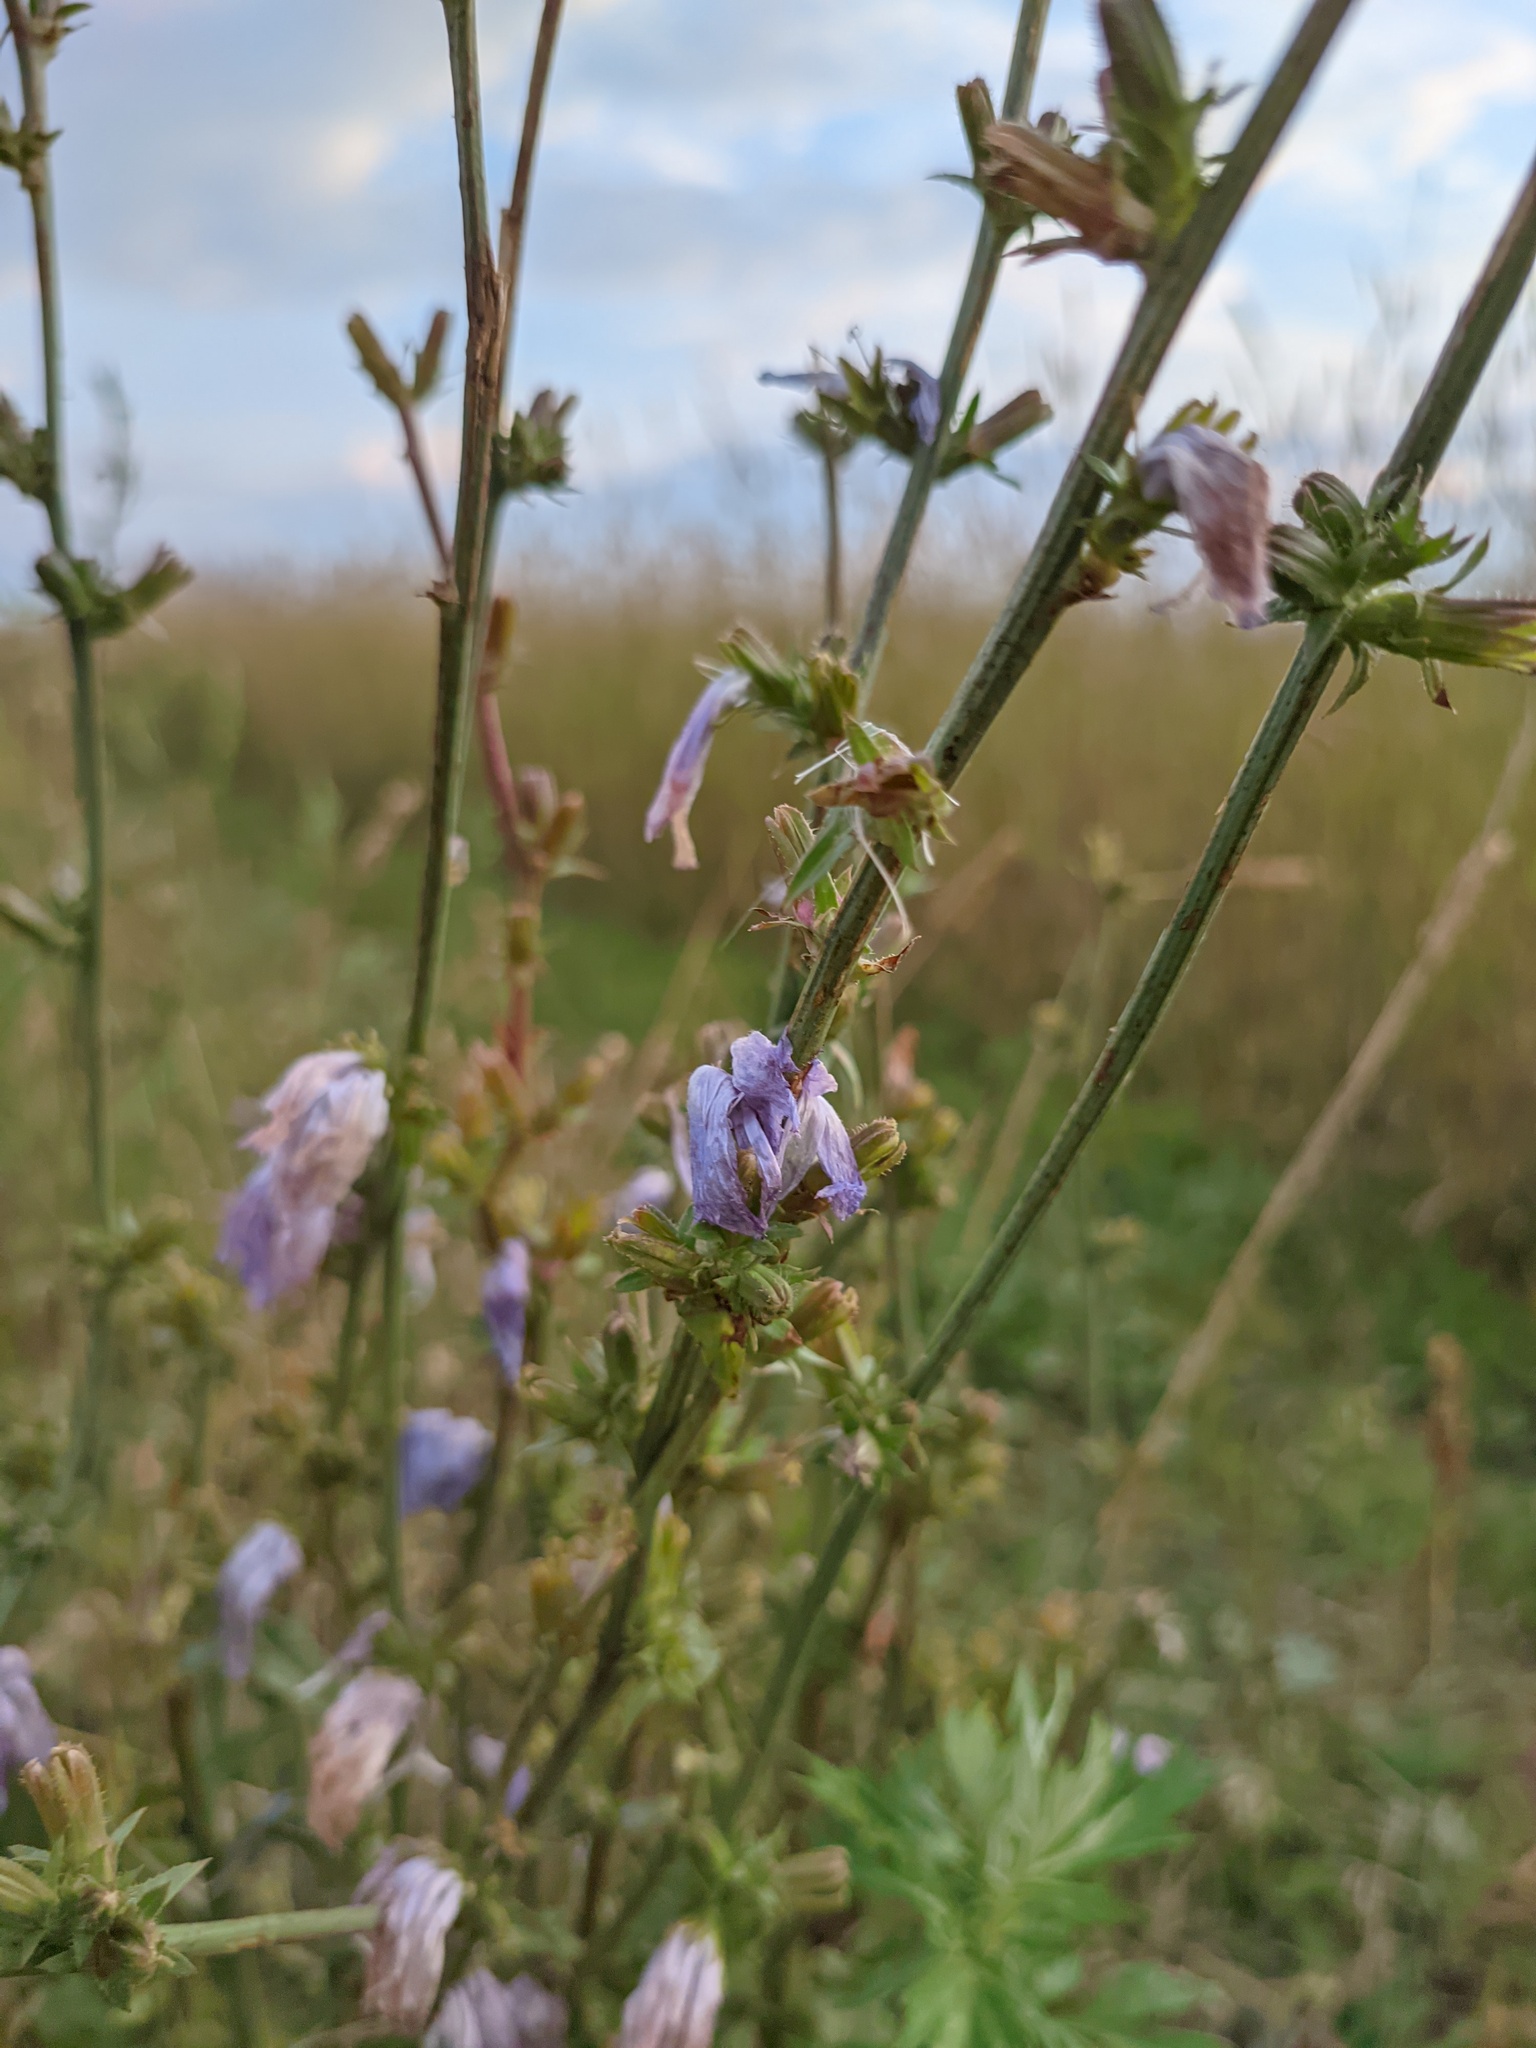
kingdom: Plantae
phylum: Tracheophyta
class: Magnoliopsida
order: Asterales
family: Asteraceae
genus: Cichorium
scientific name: Cichorium intybus
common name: Chicory
